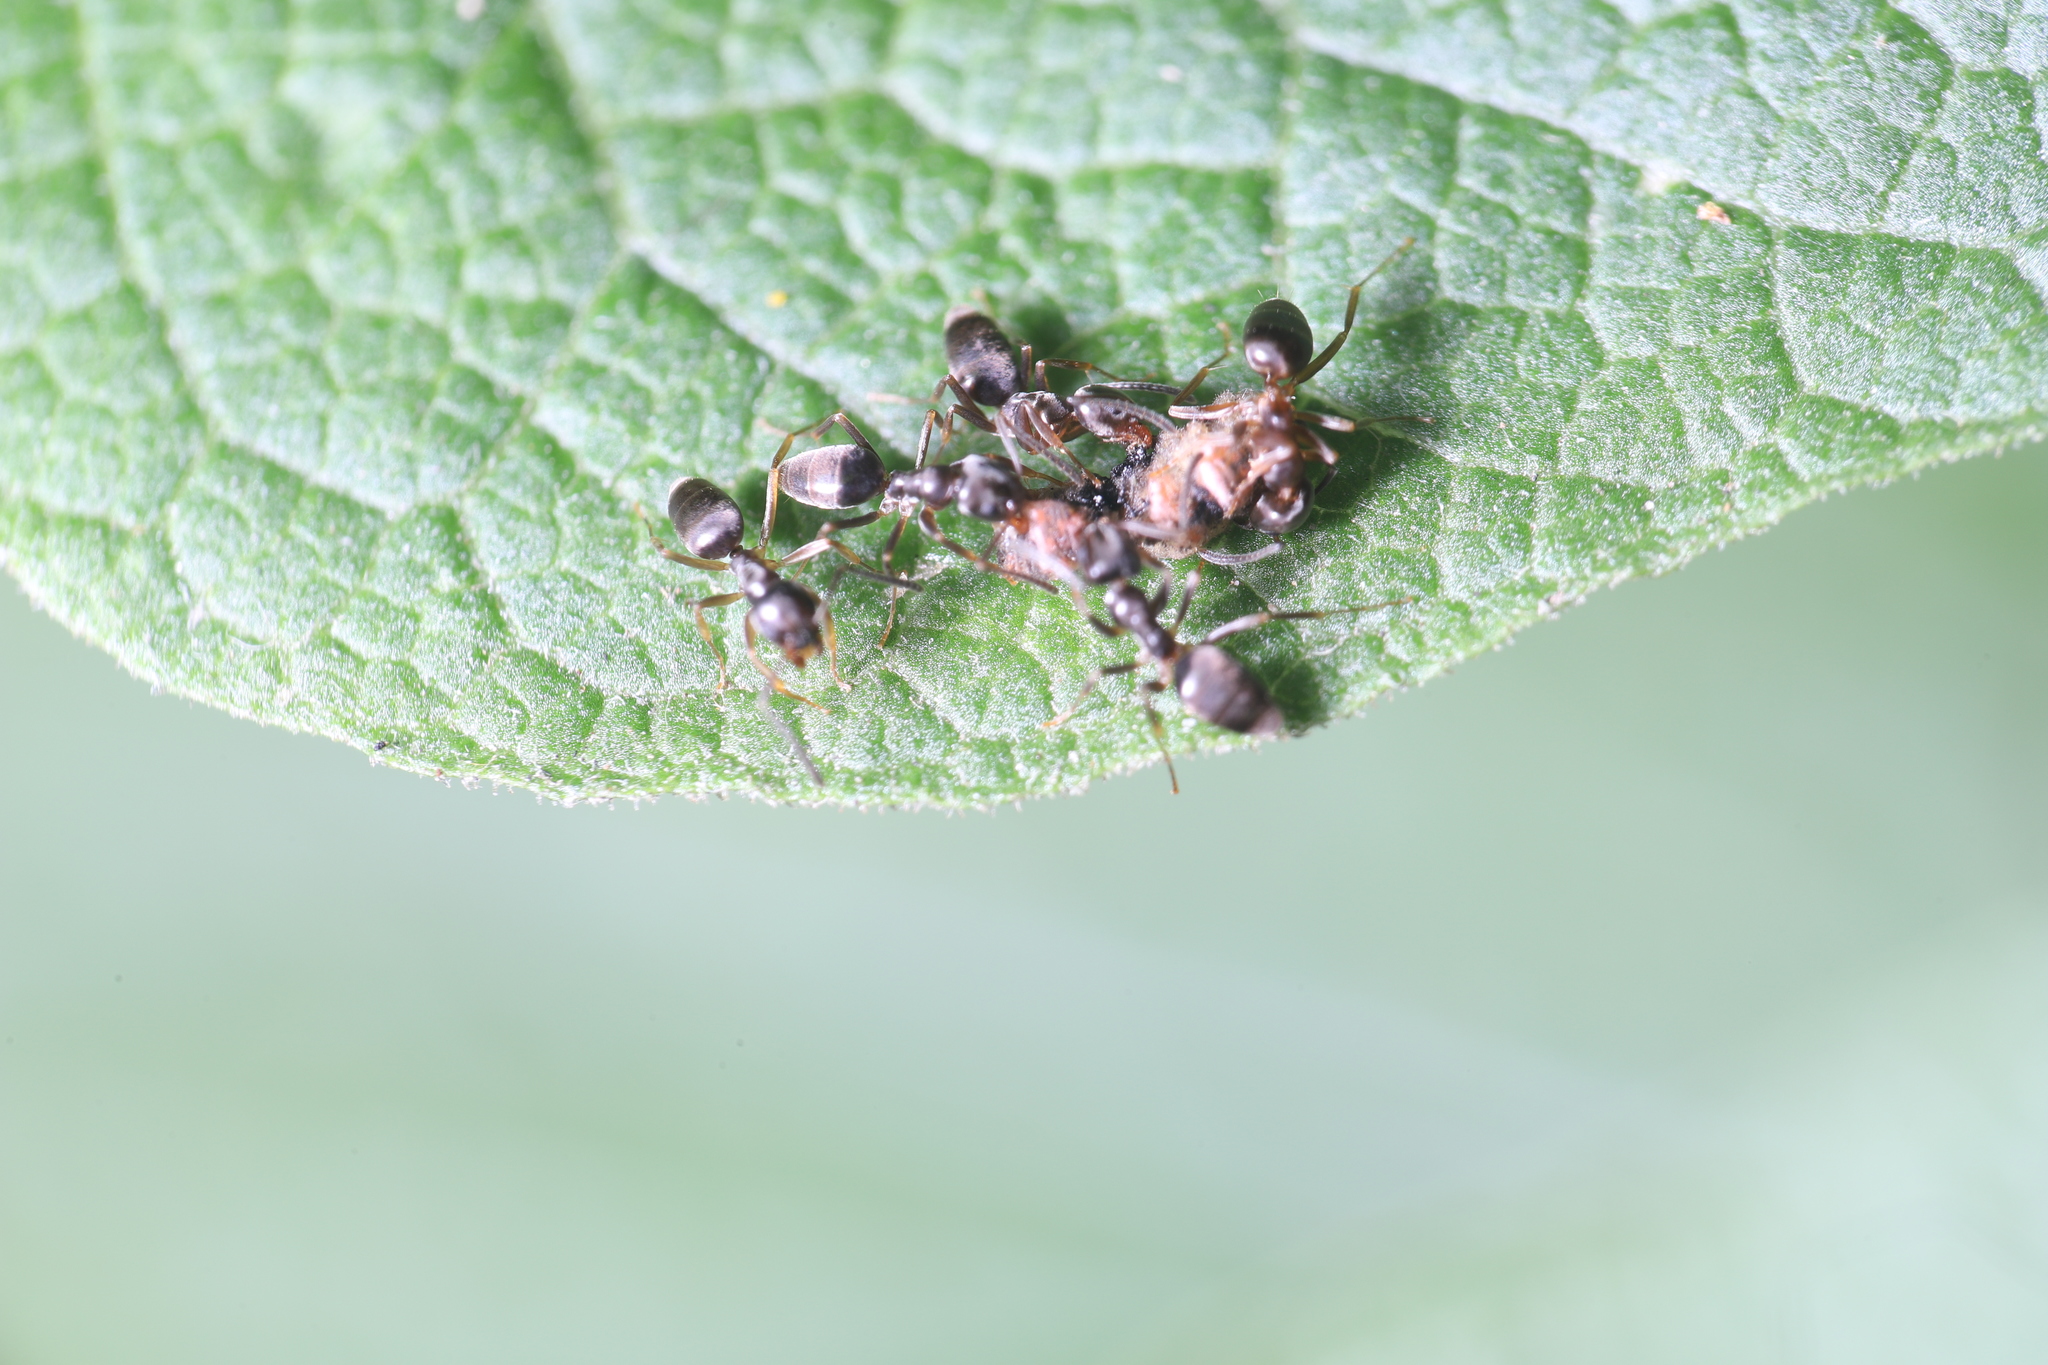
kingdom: Animalia
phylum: Arthropoda
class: Insecta
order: Hymenoptera
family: Formicidae
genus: Tapinoma
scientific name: Tapinoma sessile
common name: Odorous house ant
